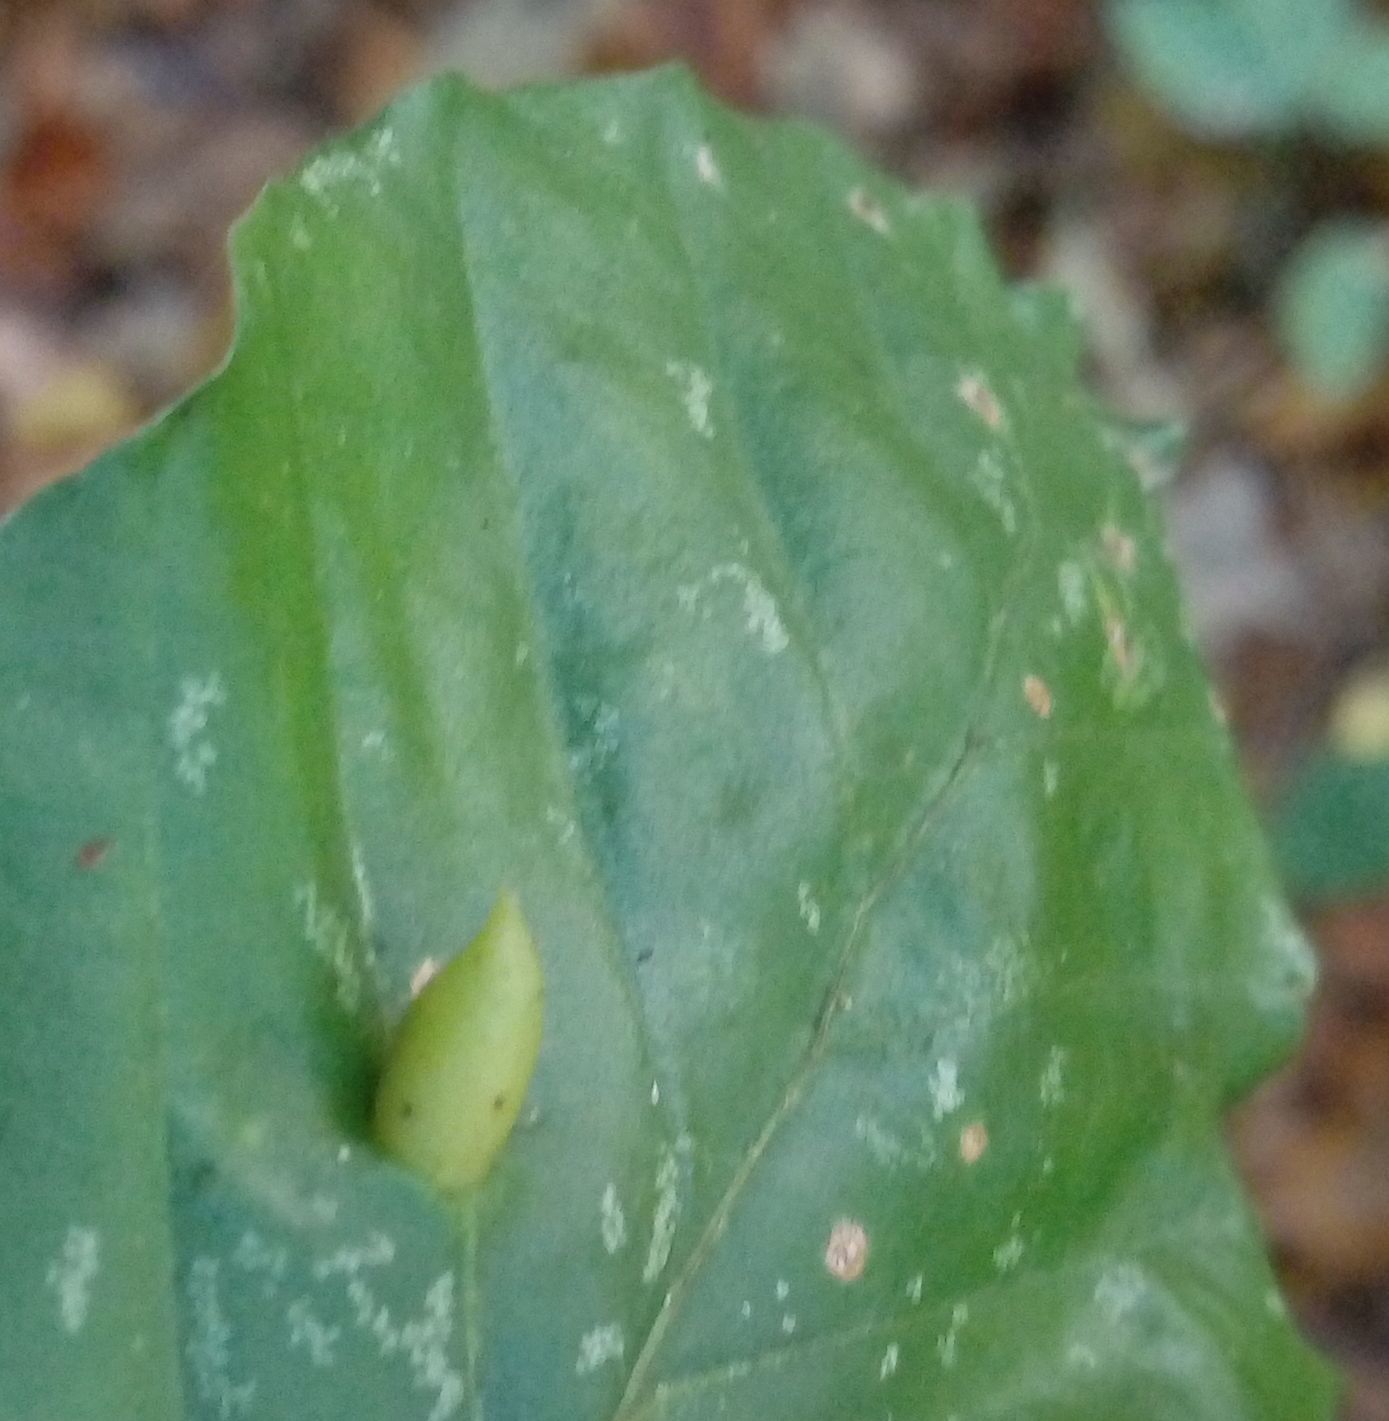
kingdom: Animalia
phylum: Arthropoda
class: Insecta
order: Diptera
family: Cecidomyiidae
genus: Mikiola
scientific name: Mikiola fagi
